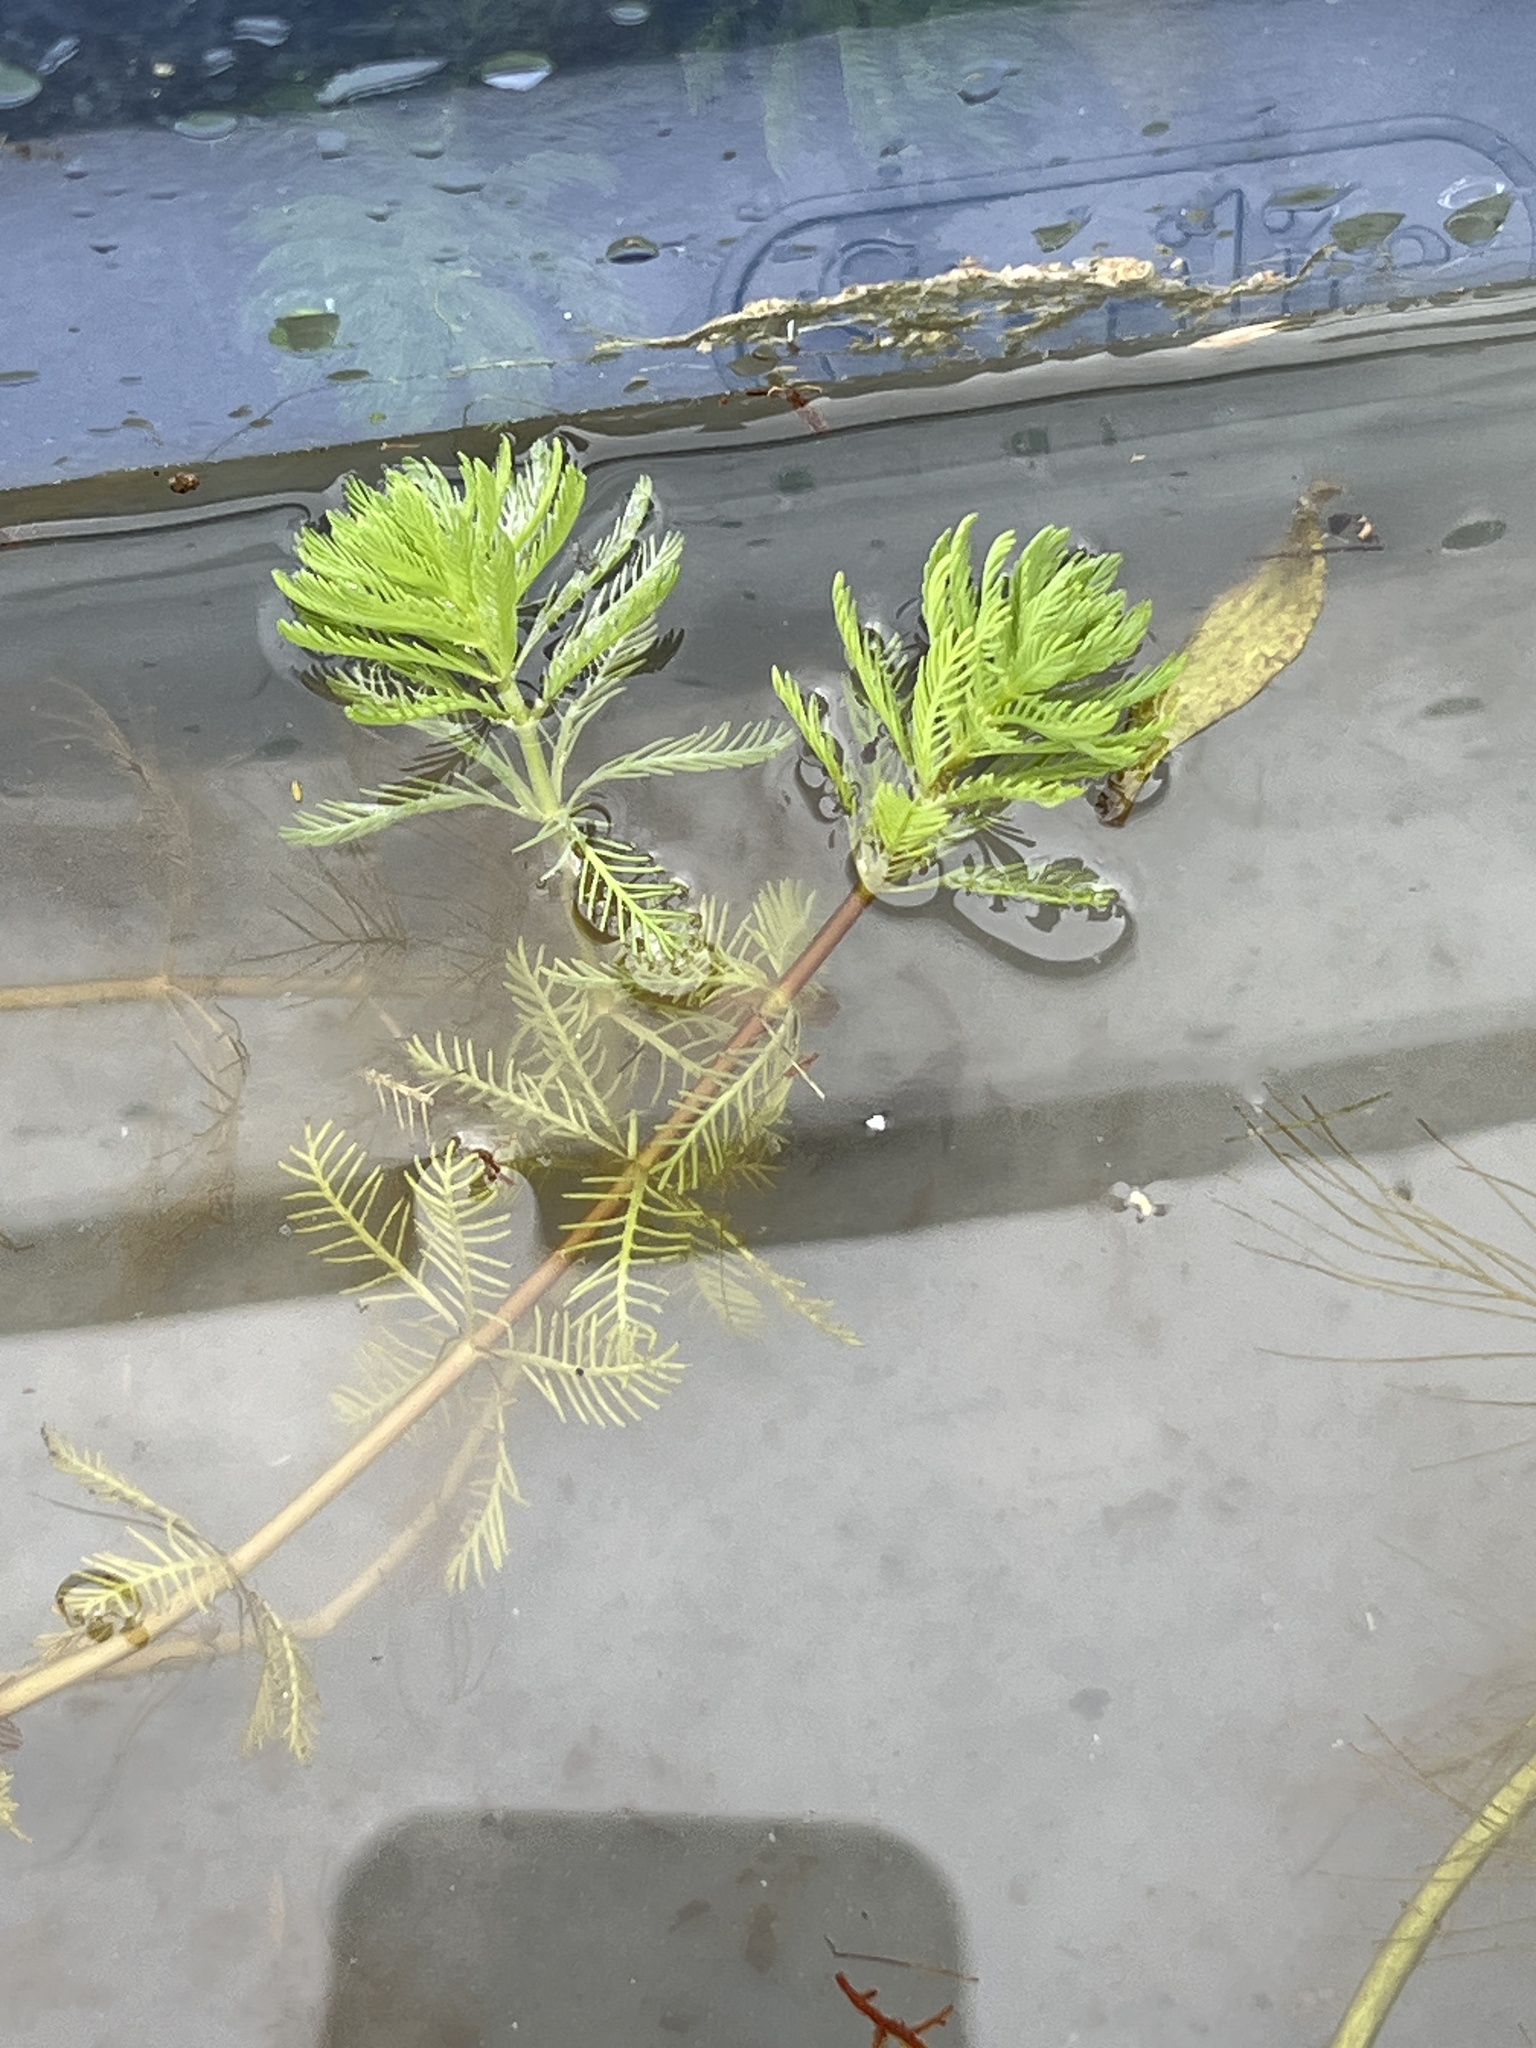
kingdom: Plantae
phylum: Tracheophyta
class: Magnoliopsida
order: Saxifragales
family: Haloragaceae
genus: Myriophyllum
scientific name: Myriophyllum aquaticum
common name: Parrot's feather
